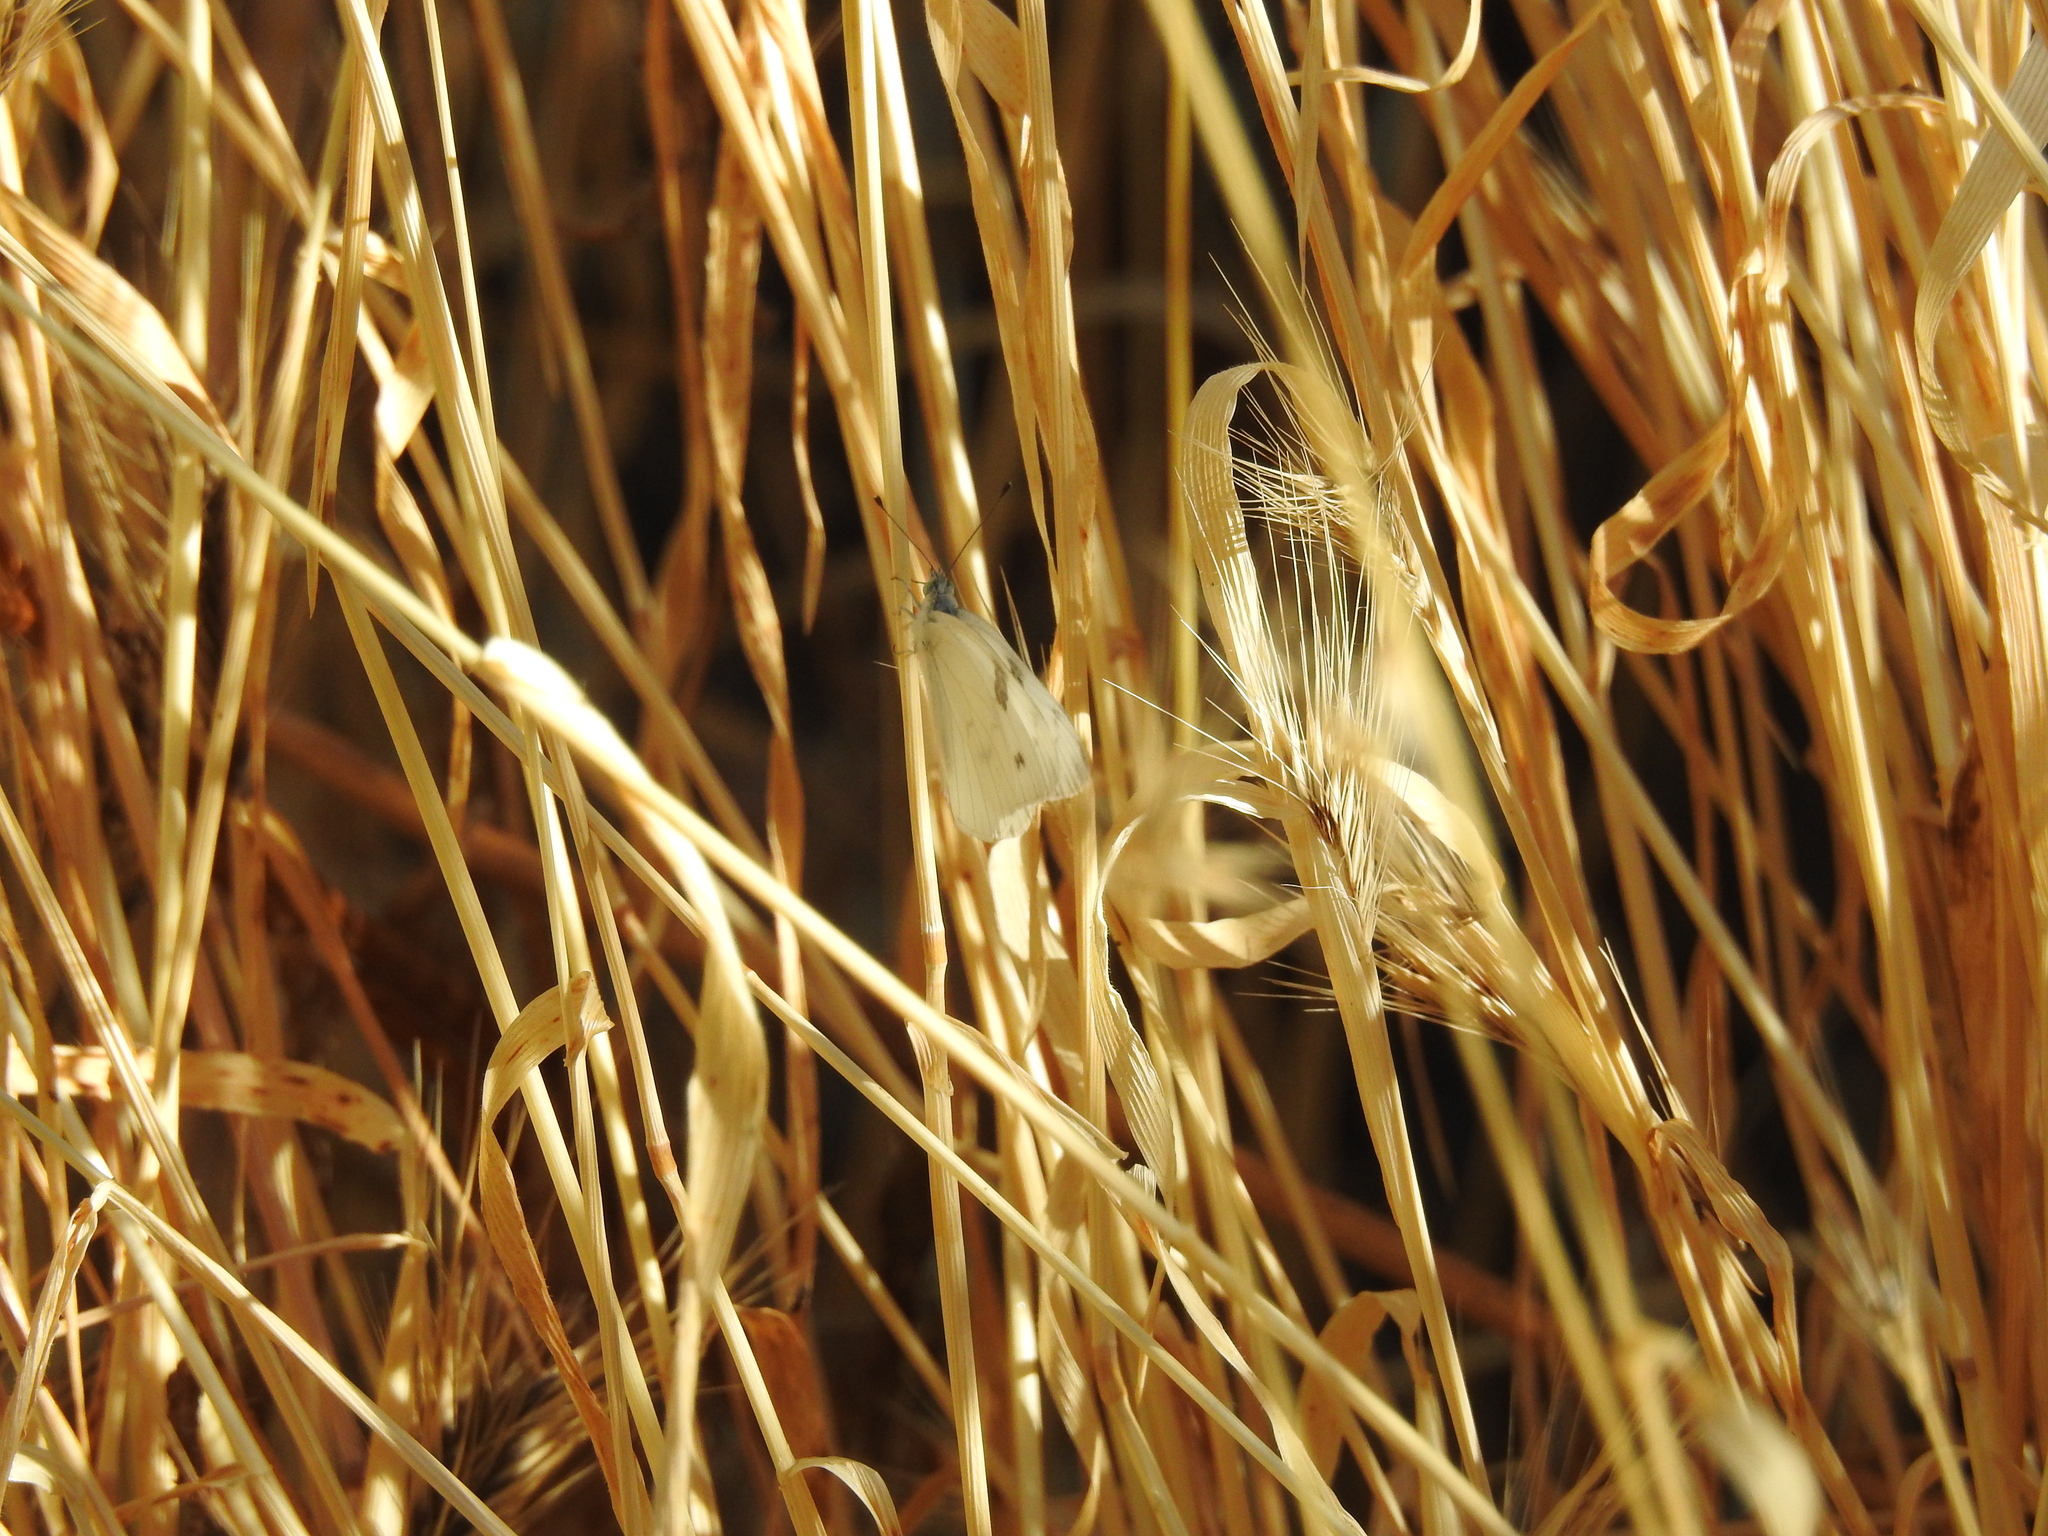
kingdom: Animalia
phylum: Arthropoda
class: Insecta
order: Lepidoptera
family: Pieridae
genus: Pontia
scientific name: Pontia protodice
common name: Checkered white
